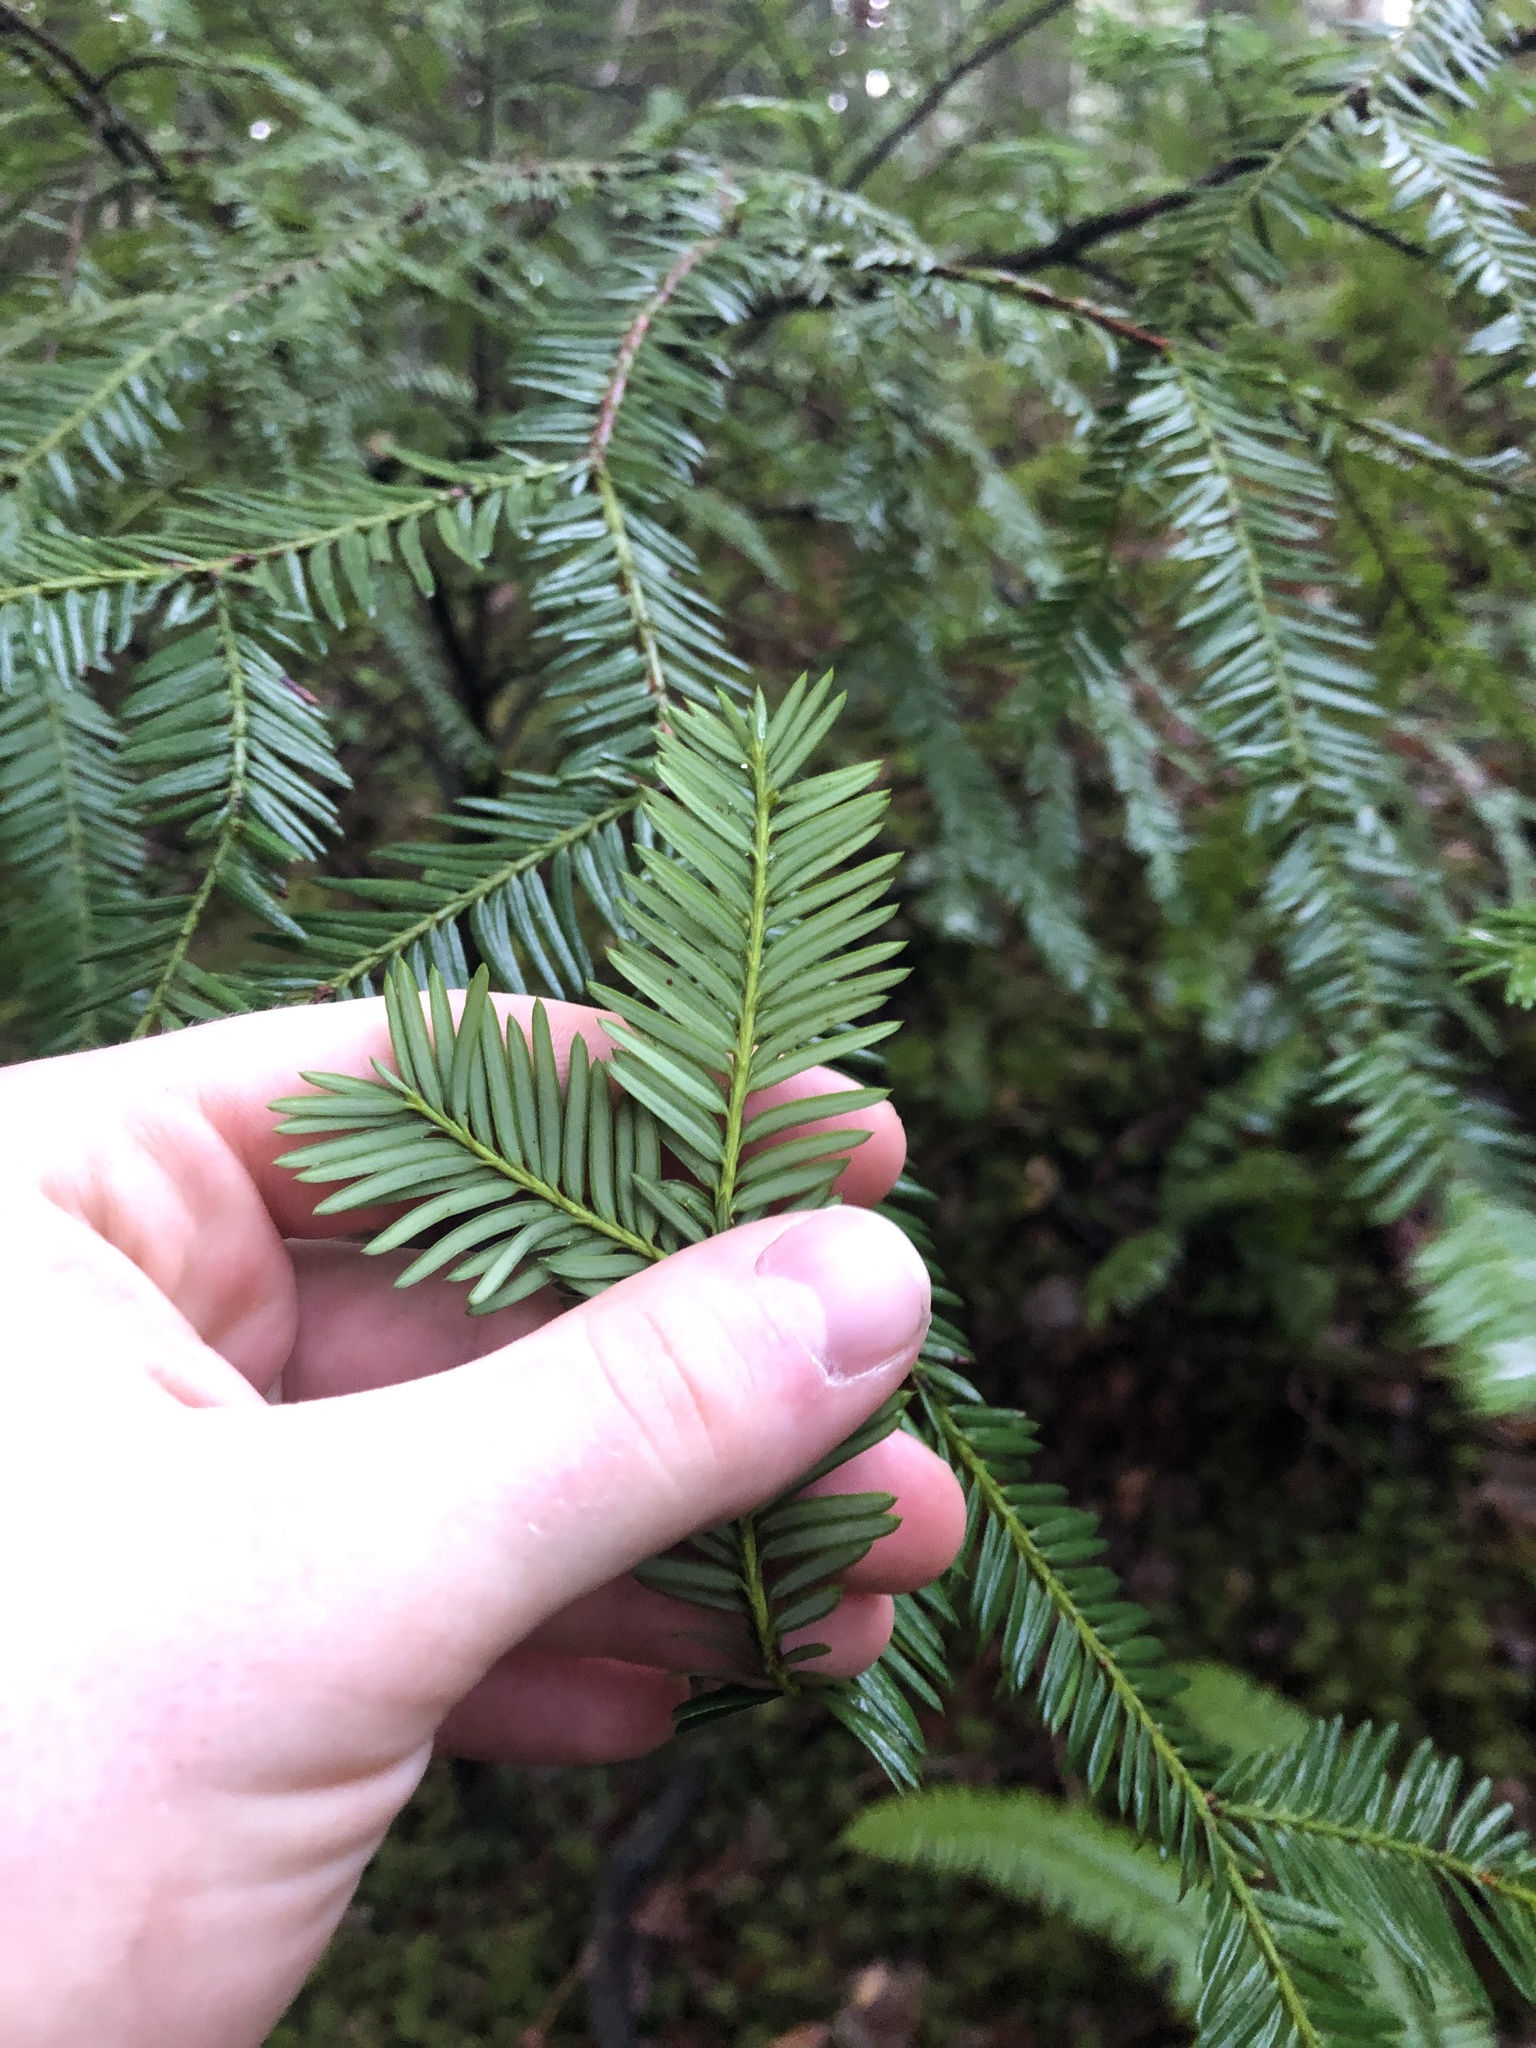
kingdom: Plantae
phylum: Tracheophyta
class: Pinopsida
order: Pinales
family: Taxaceae
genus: Taxus
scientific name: Taxus brevifolia
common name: Pacific yew
